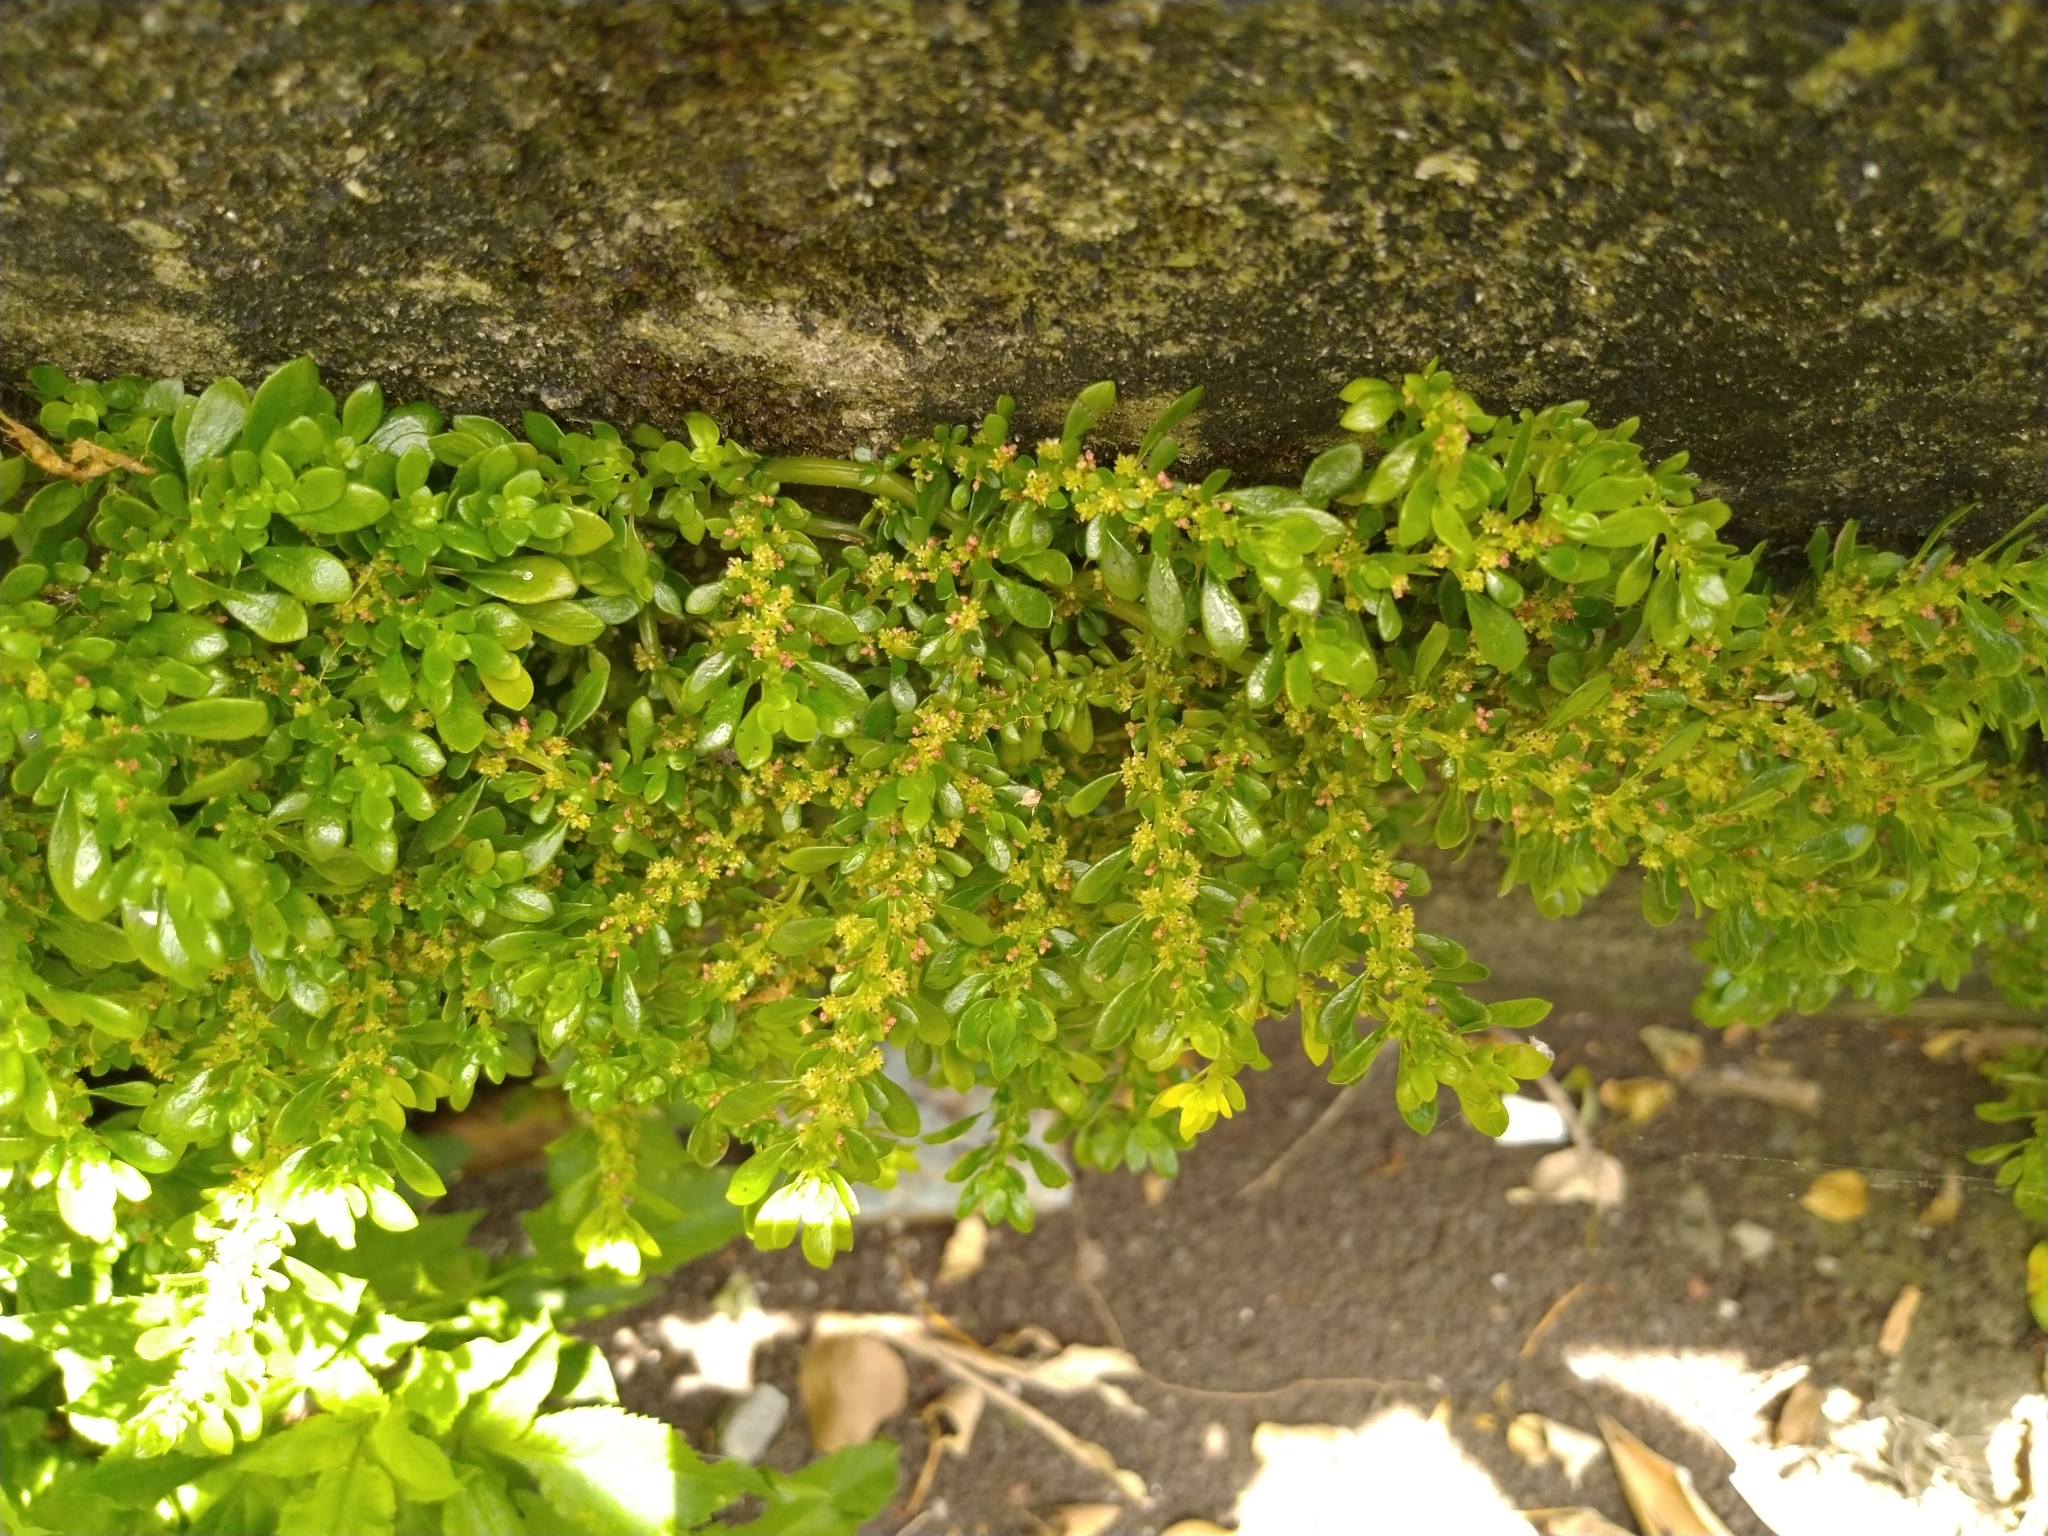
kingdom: Plantae
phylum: Tracheophyta
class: Magnoliopsida
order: Rosales
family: Urticaceae
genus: Pilea
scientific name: Pilea microphylla
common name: Artillery-plant
